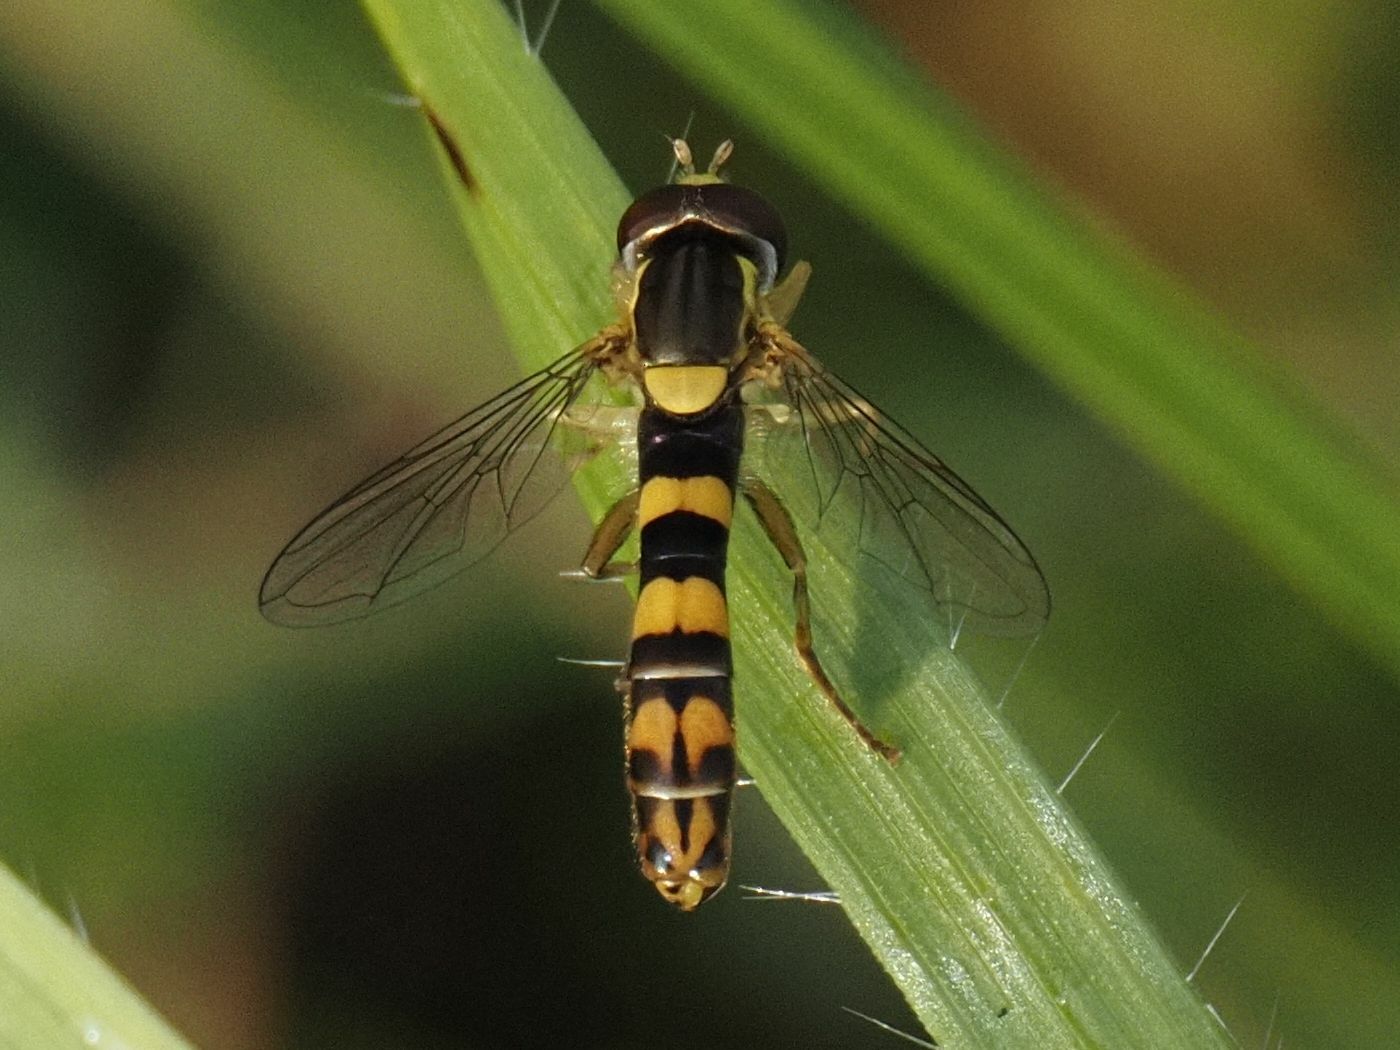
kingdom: Animalia
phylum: Arthropoda
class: Insecta
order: Diptera
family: Syrphidae
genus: Sphaerophoria
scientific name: Sphaerophoria scripta
